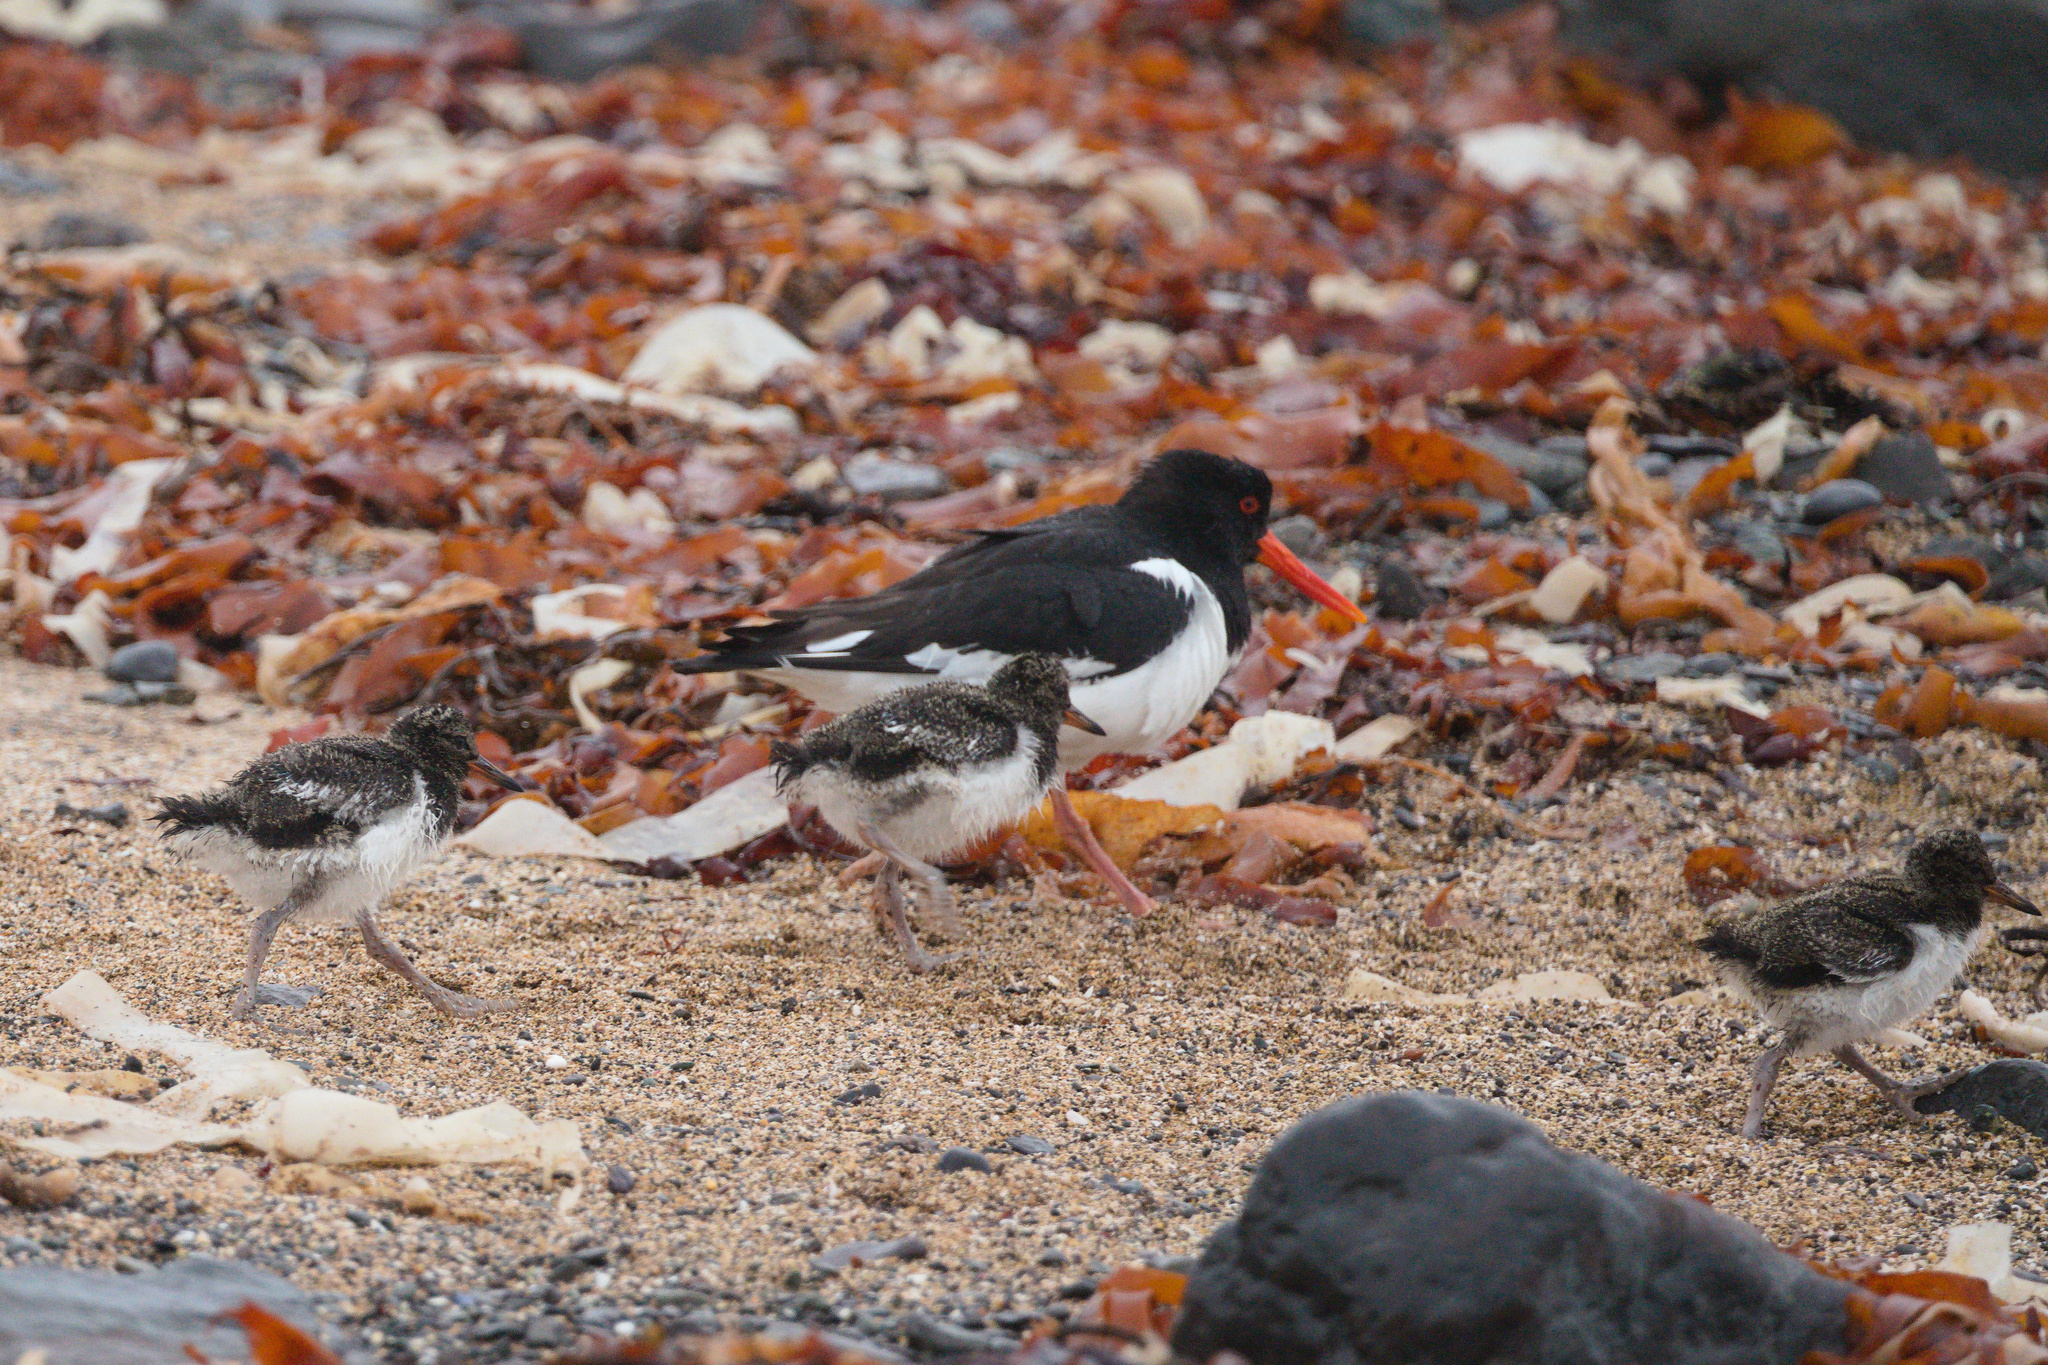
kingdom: Animalia
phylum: Chordata
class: Aves
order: Charadriiformes
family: Haematopodidae
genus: Haematopus
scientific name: Haematopus ostralegus
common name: Eurasian oystercatcher
